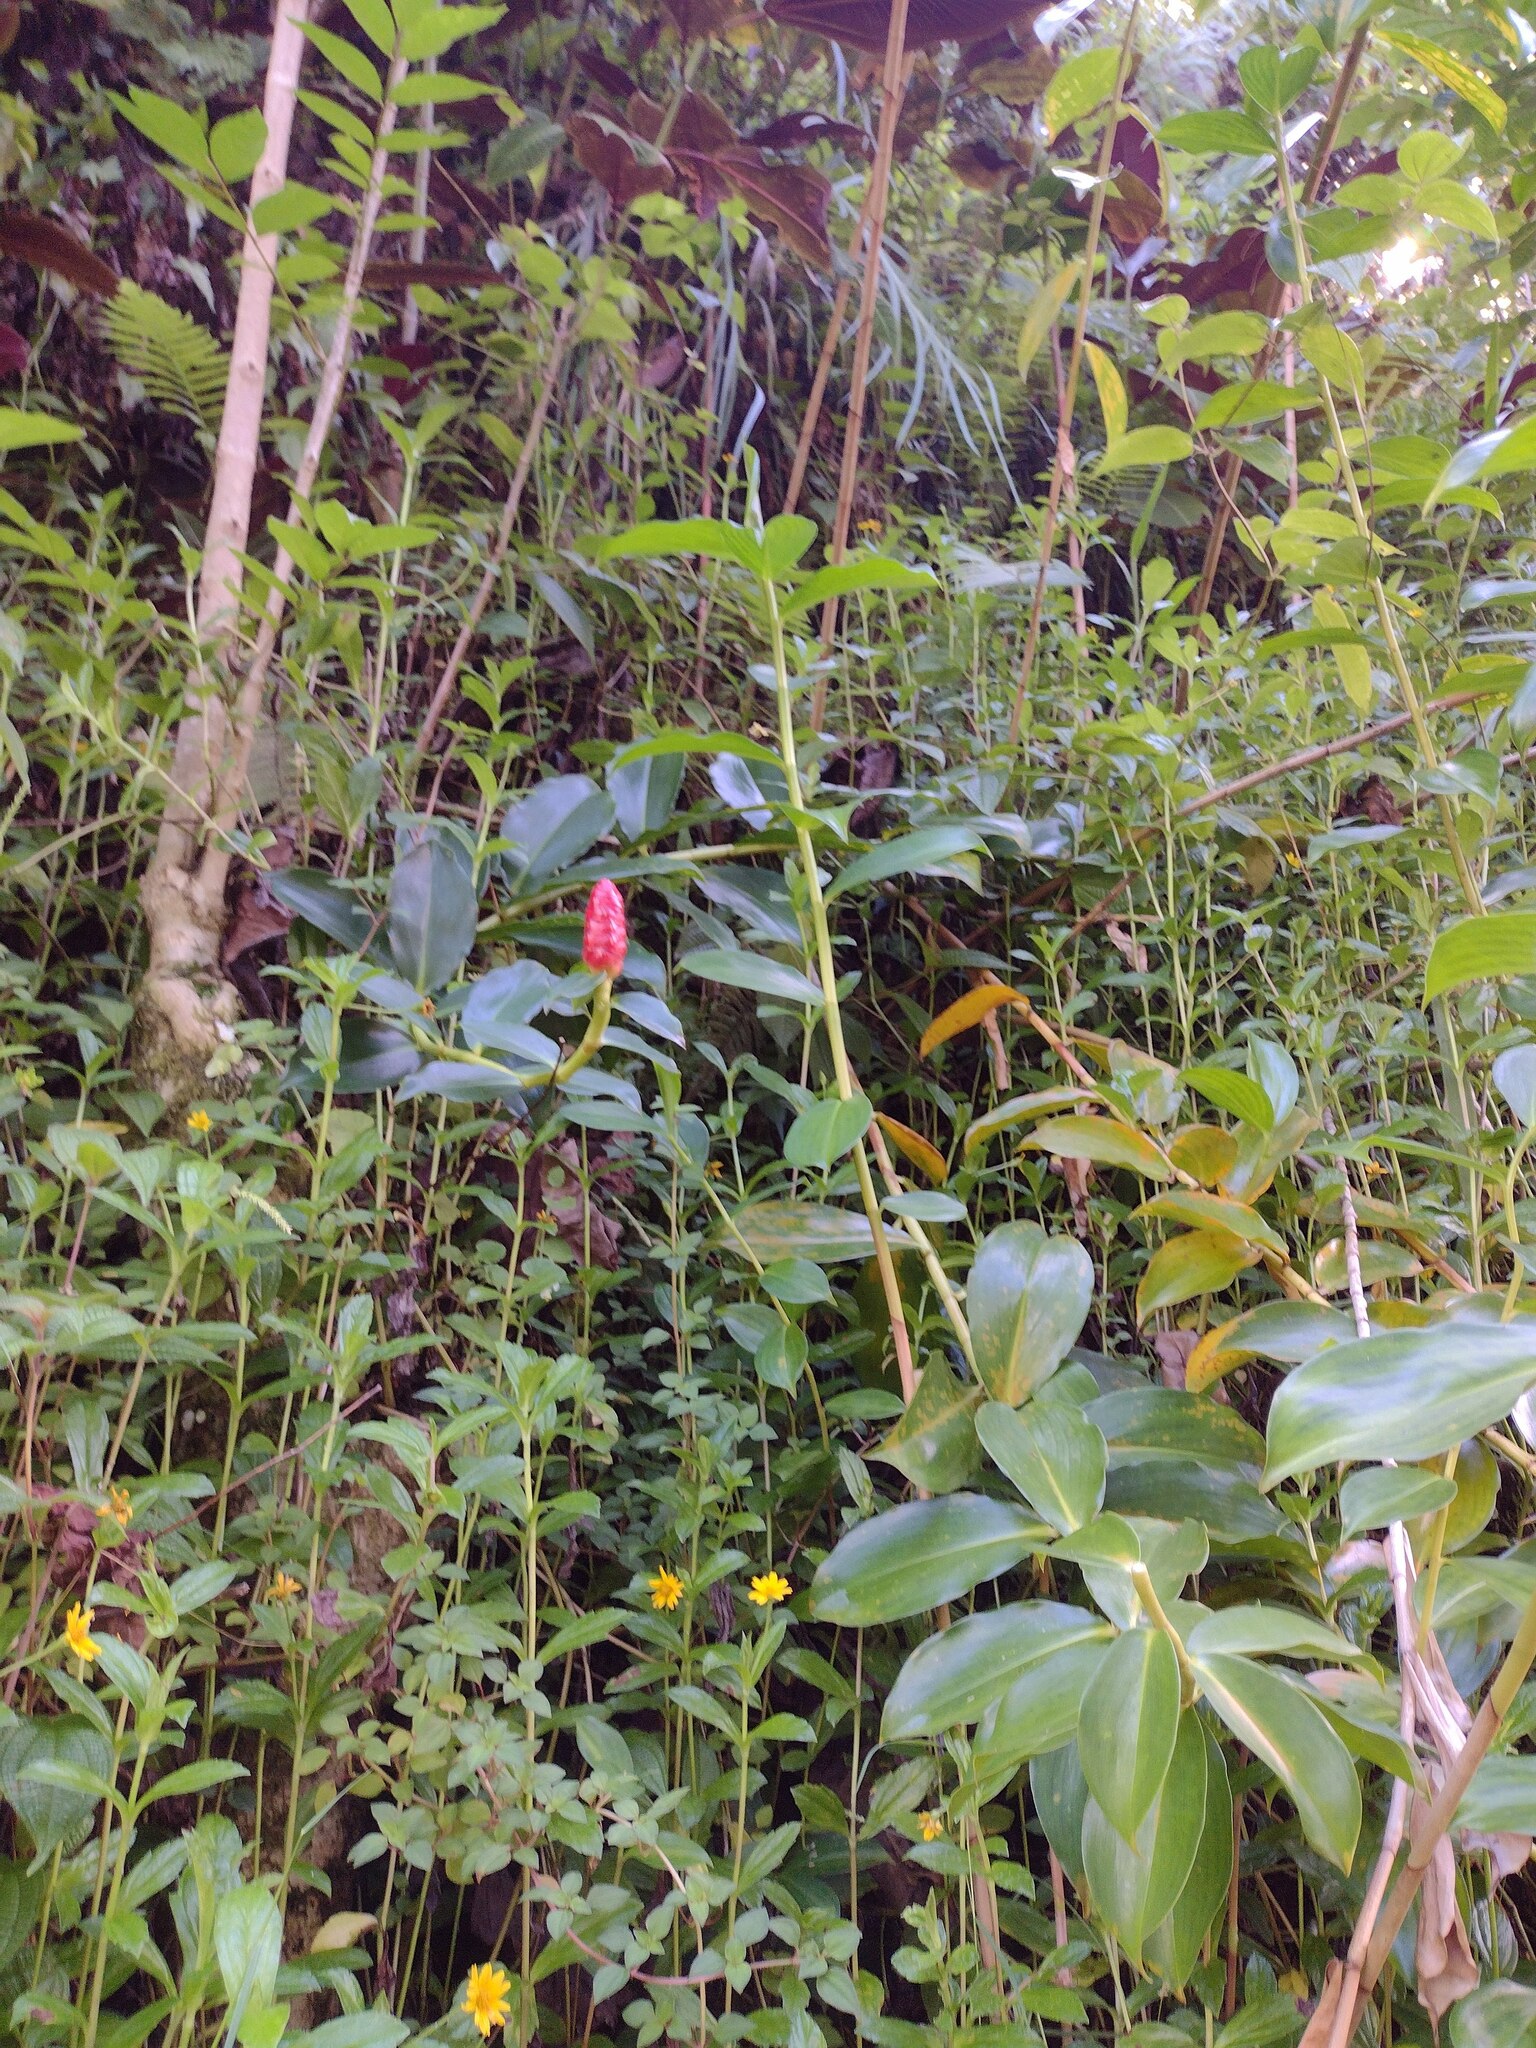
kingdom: Plantae
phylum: Tracheophyta
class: Liliopsida
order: Zingiberales
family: Costaceae
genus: Costus
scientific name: Costus woodsonii
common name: Scarlet spiral-ginger
